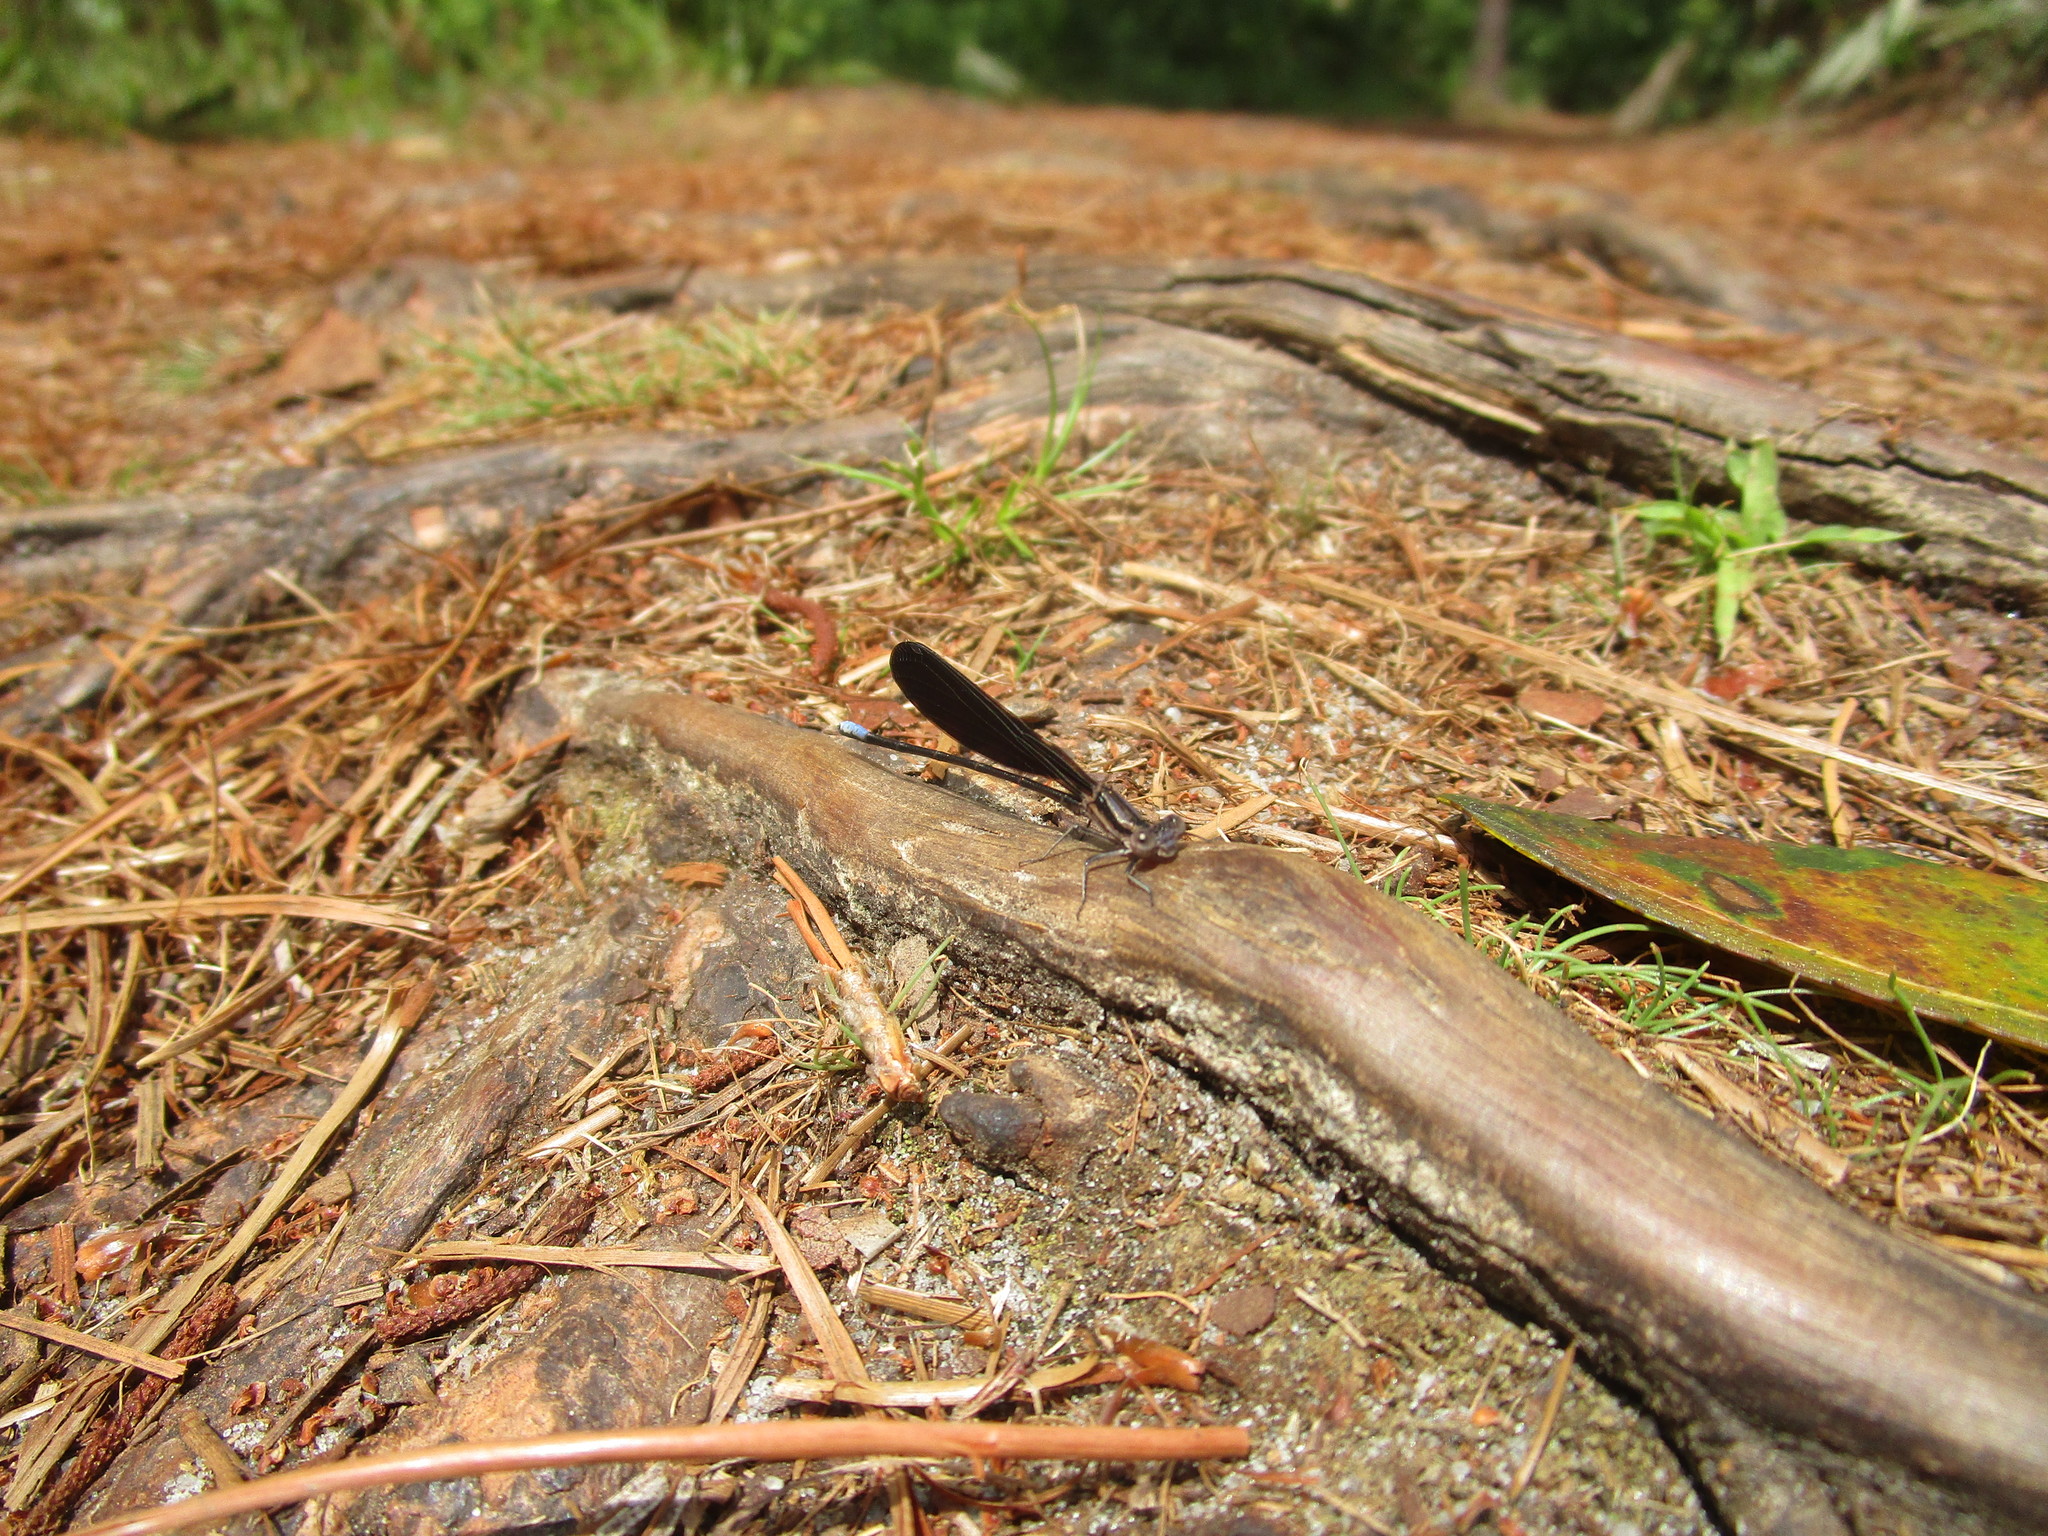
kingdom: Animalia
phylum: Arthropoda
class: Insecta
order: Odonata
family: Coenagrionidae
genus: Argia
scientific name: Argia fumipennis
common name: Variable dancer
